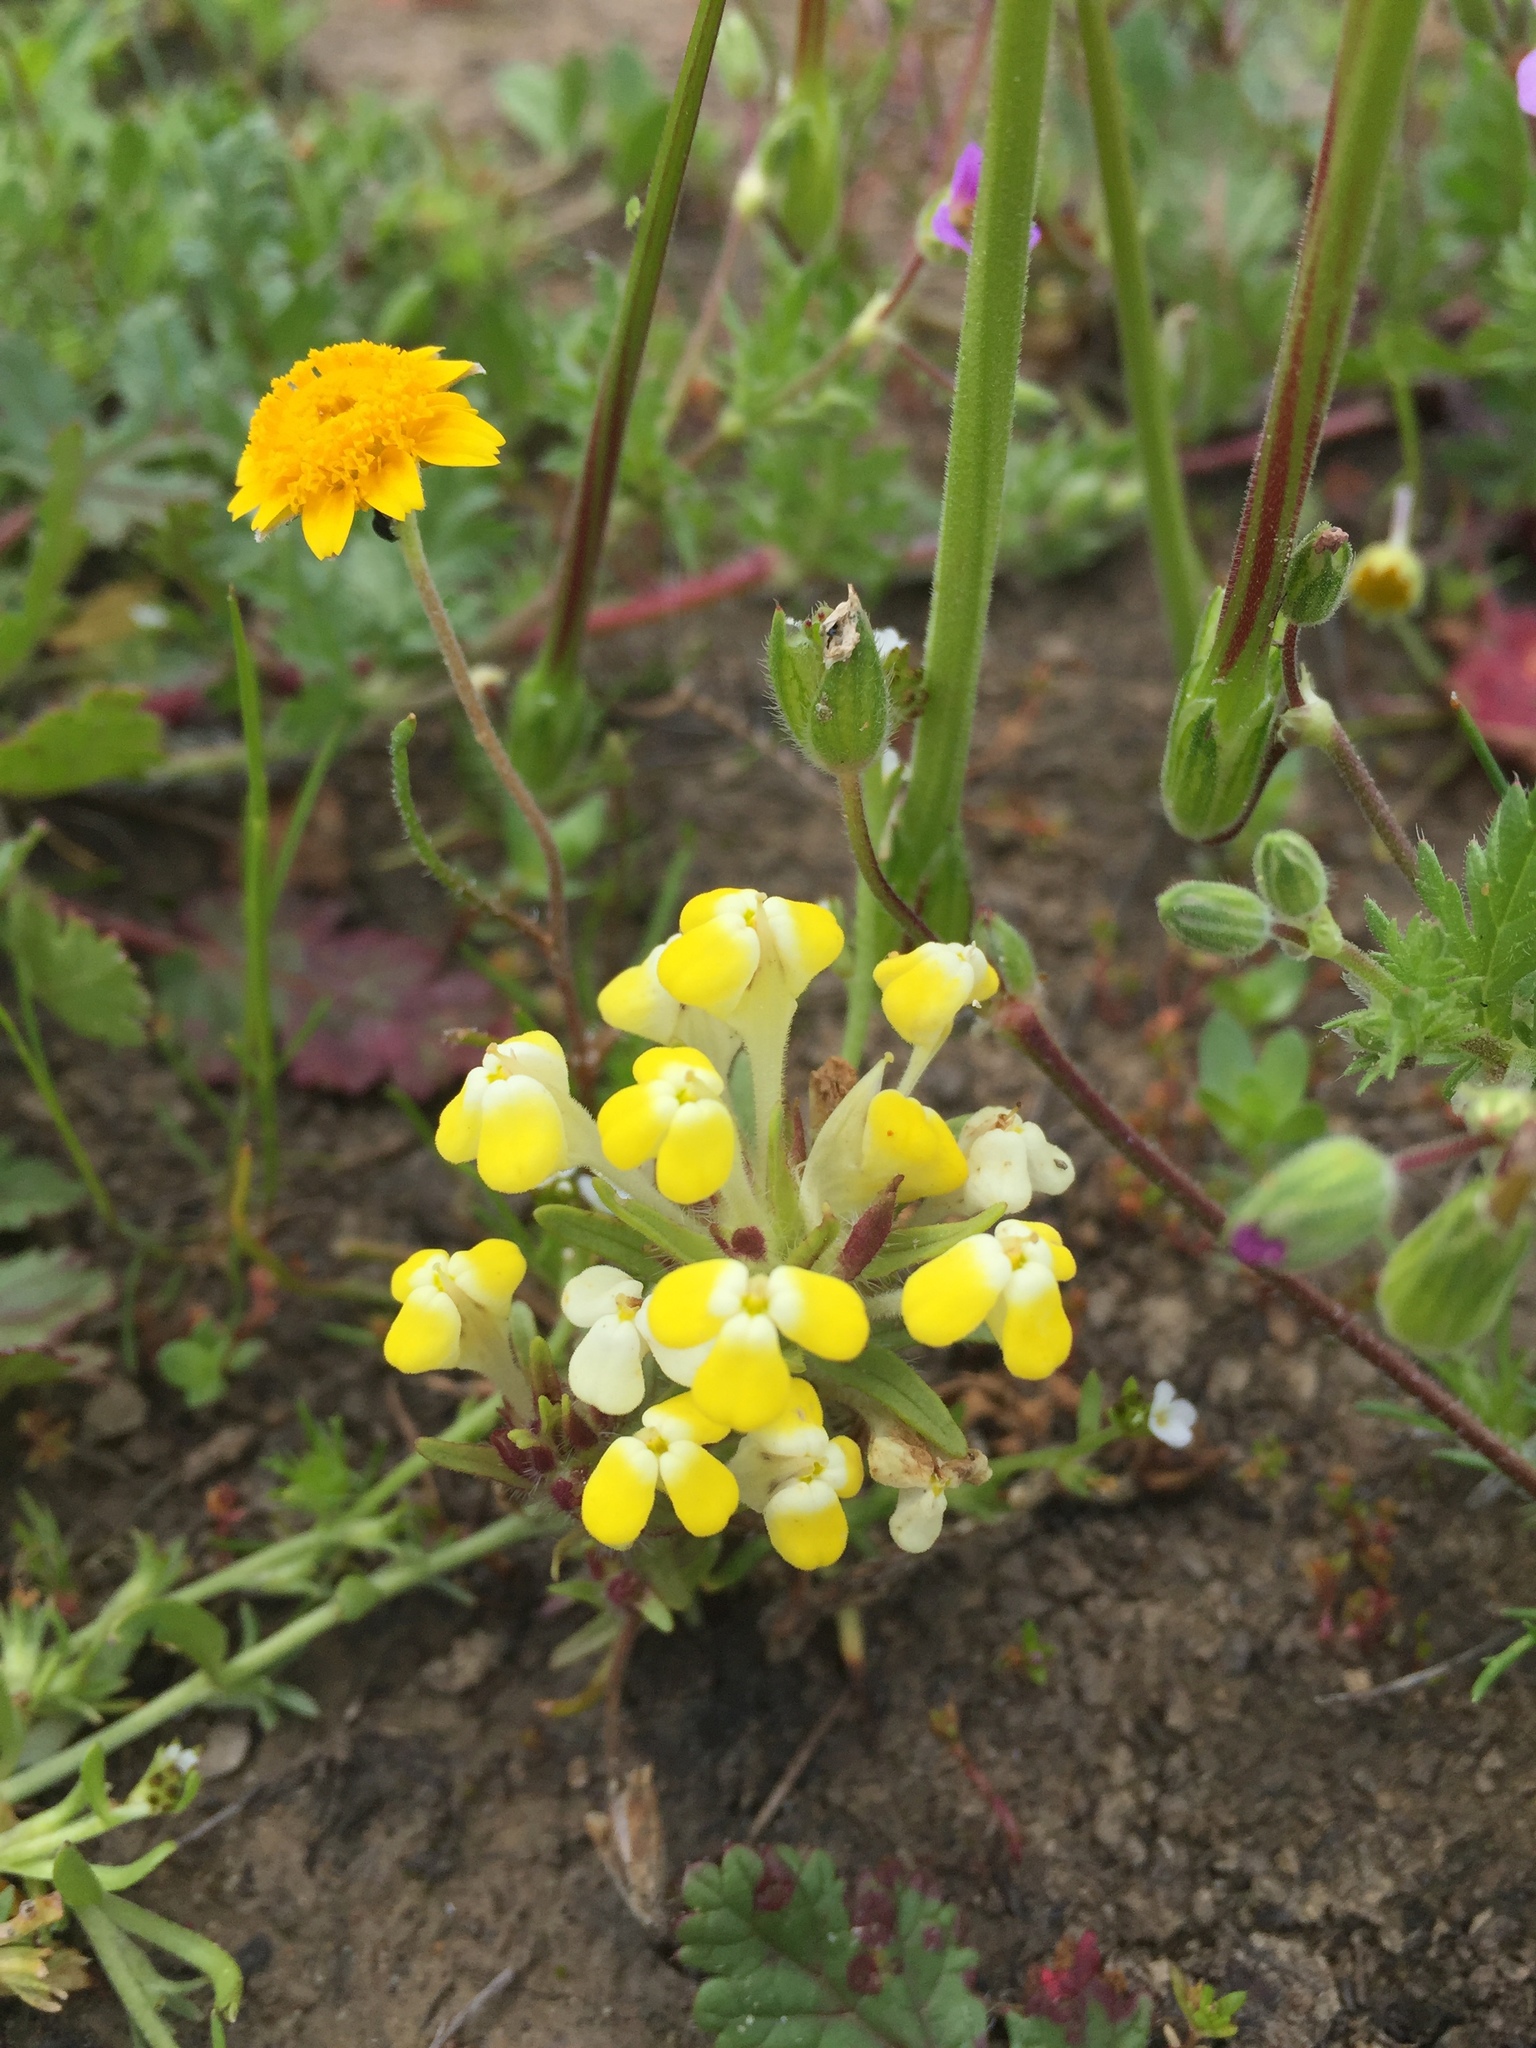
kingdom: Plantae
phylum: Tracheophyta
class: Magnoliopsida
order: Lamiales
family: Orobanchaceae
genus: Castilleja
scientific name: Castilleja campestris
